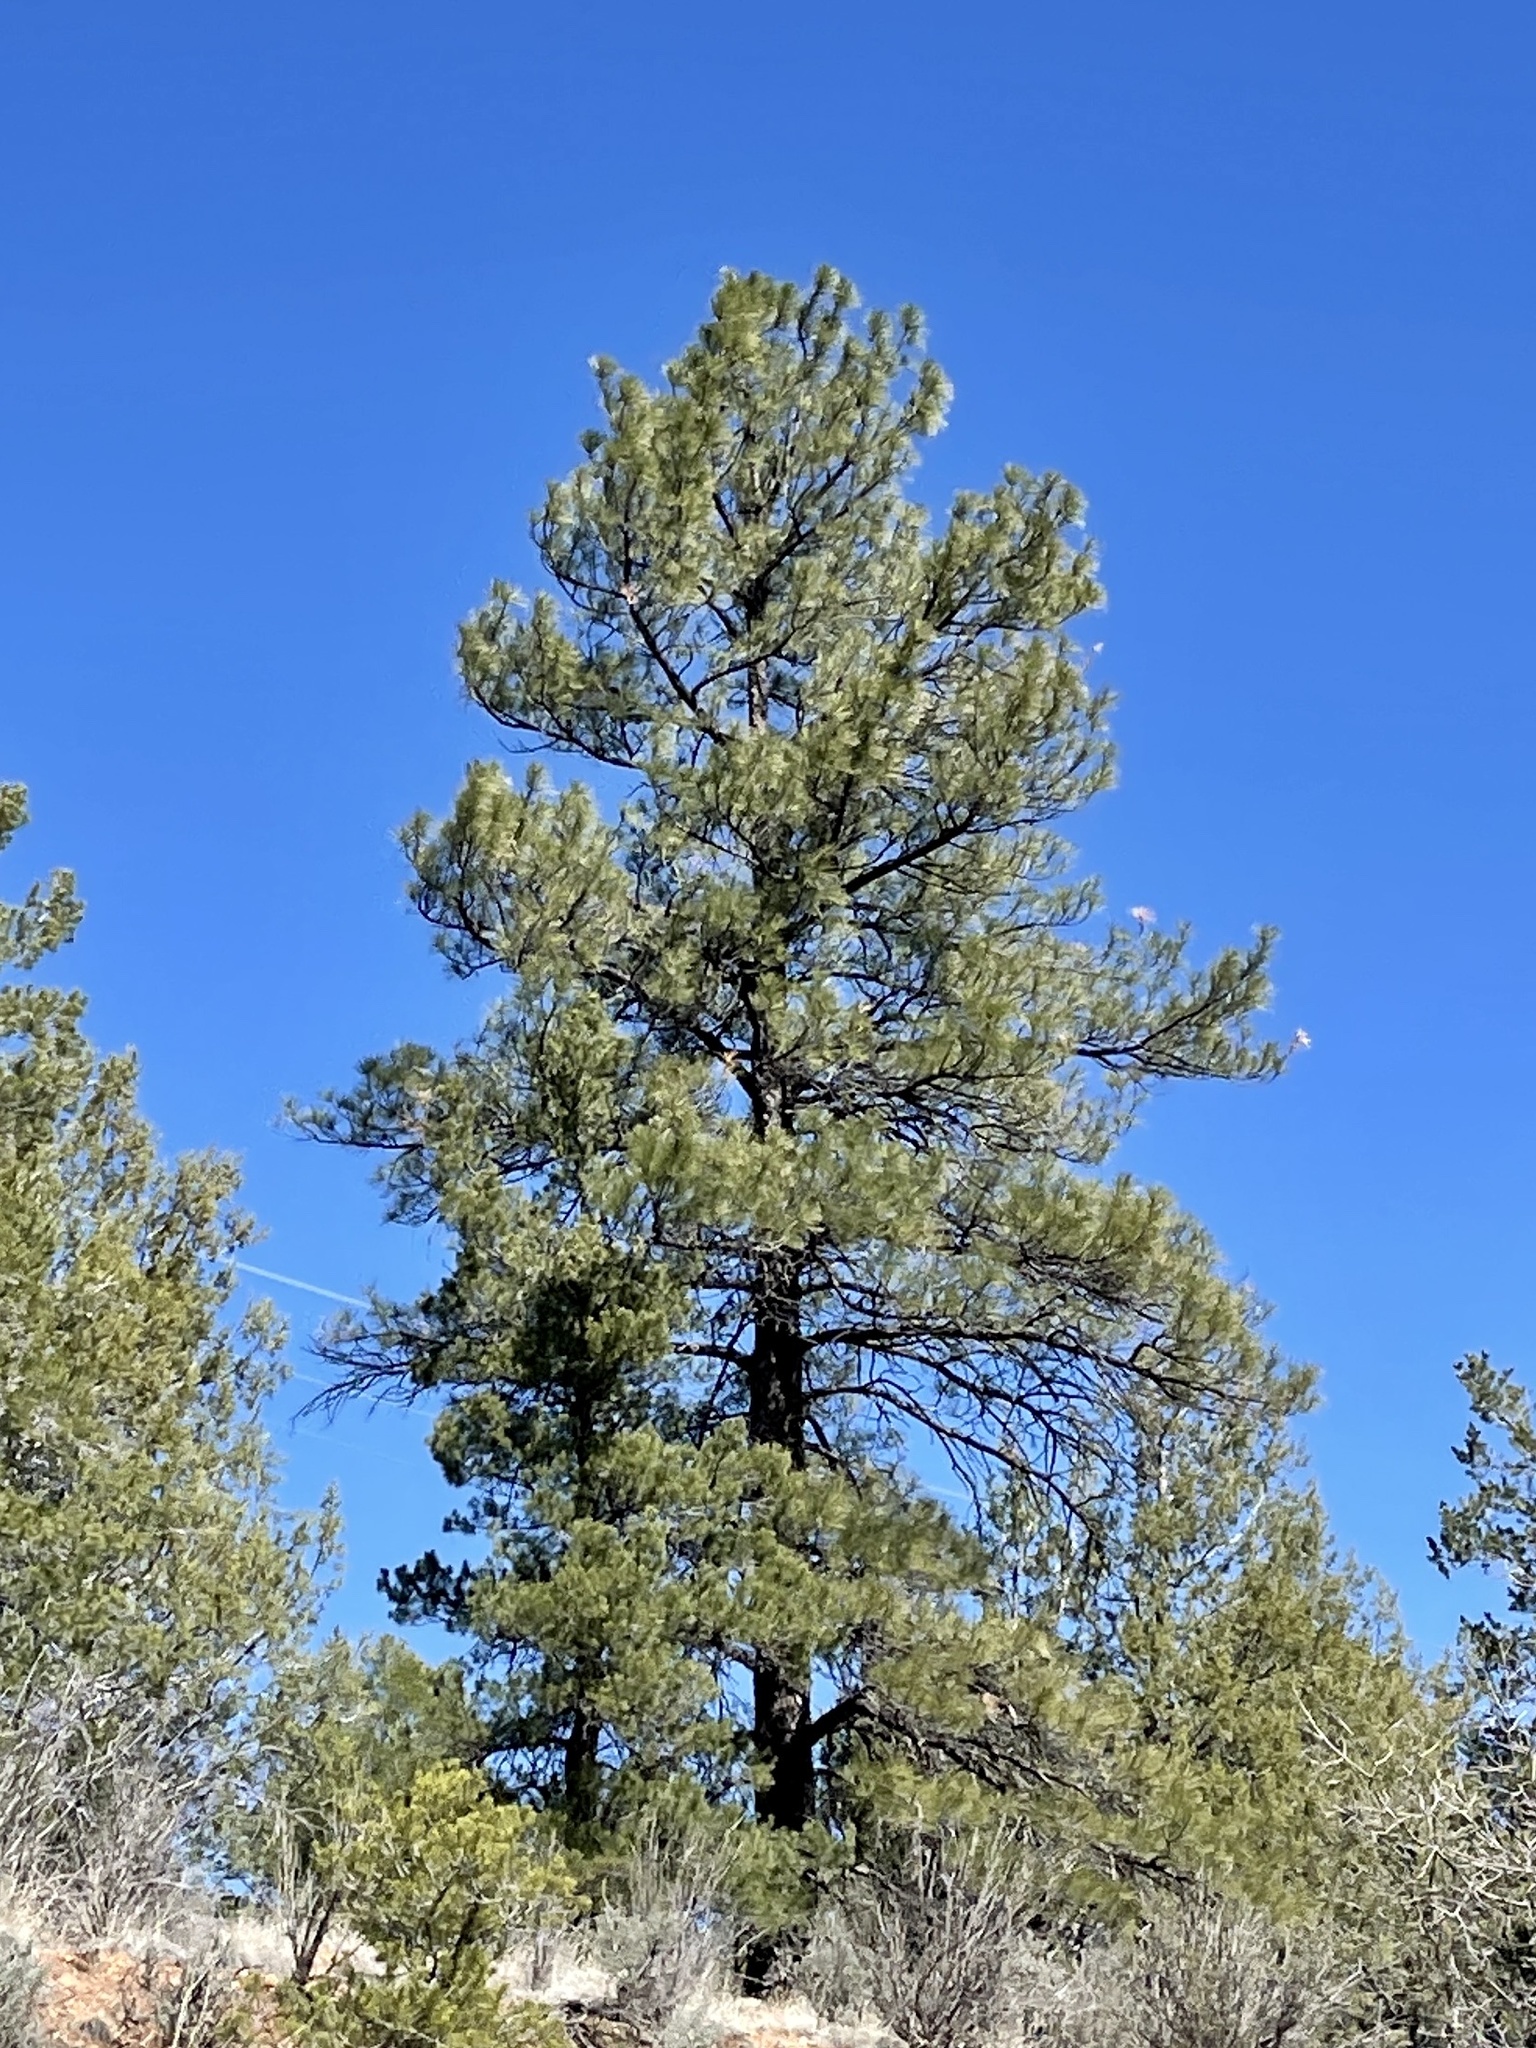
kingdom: Plantae
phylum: Tracheophyta
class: Pinopsida
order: Pinales
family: Pinaceae
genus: Pinus
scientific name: Pinus ponderosa
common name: Western yellow-pine
